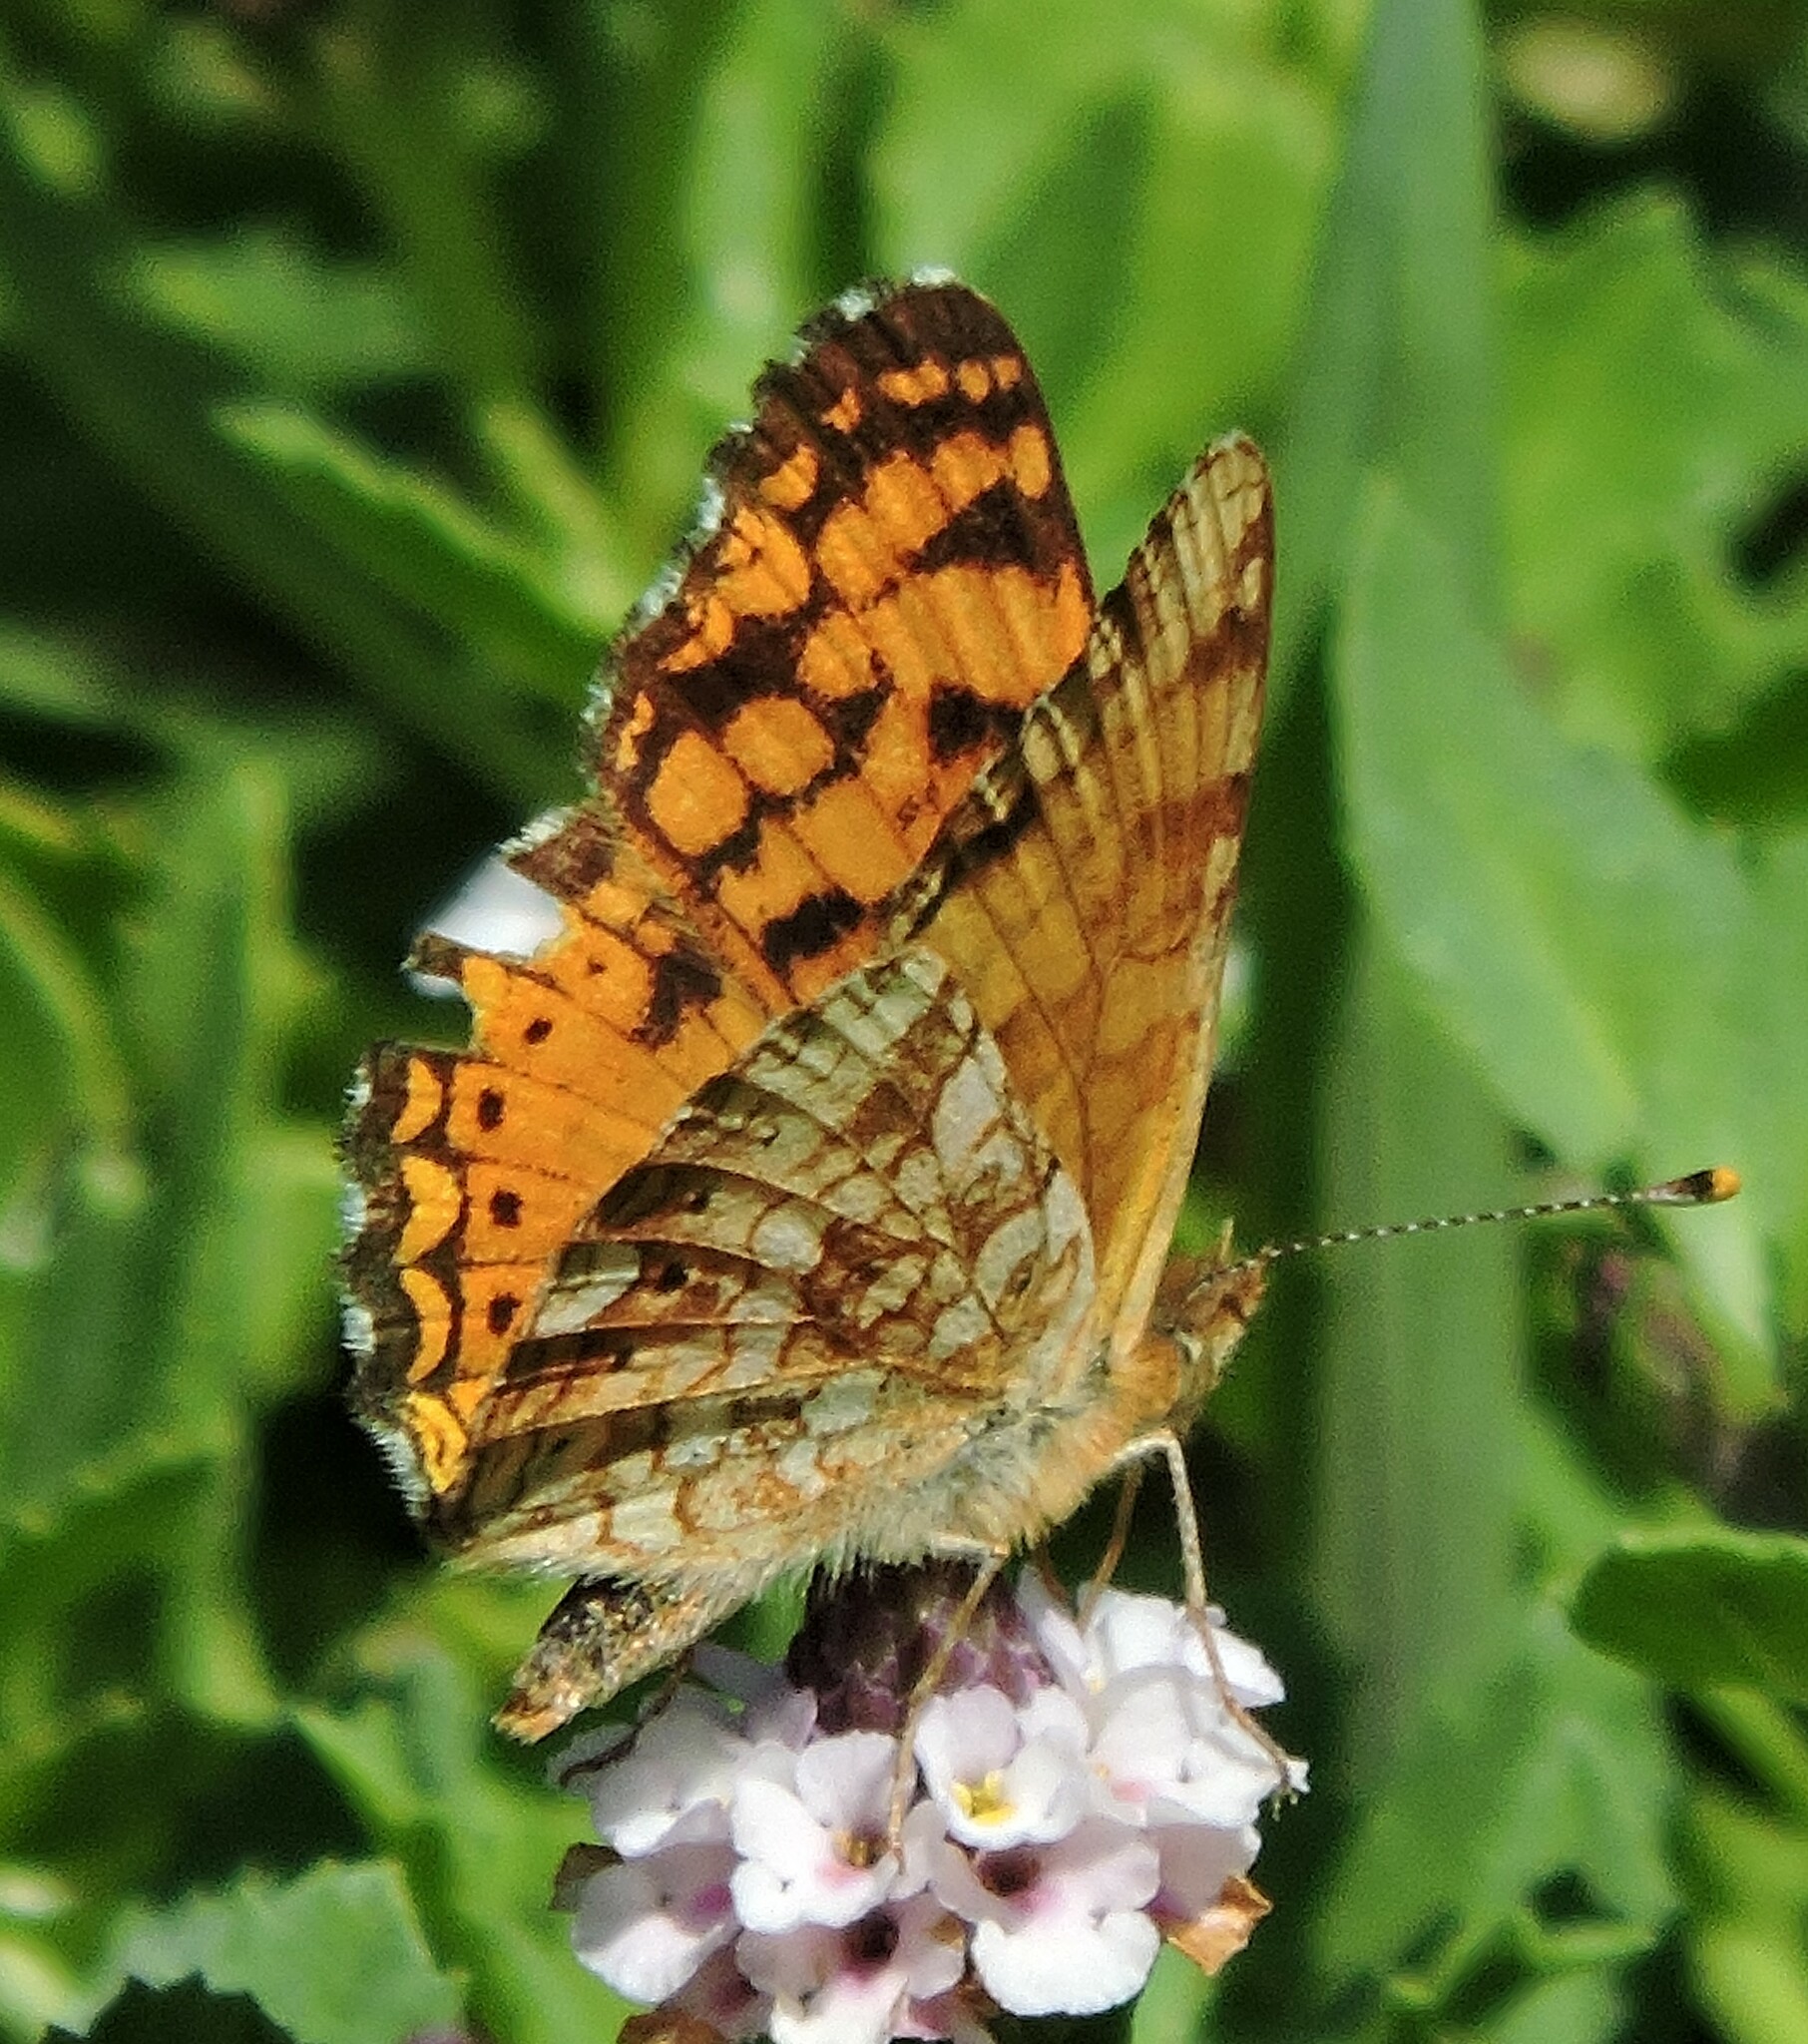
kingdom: Animalia
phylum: Arthropoda
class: Insecta
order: Lepidoptera
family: Nymphalidae
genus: Eresia
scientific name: Eresia aveyrona
